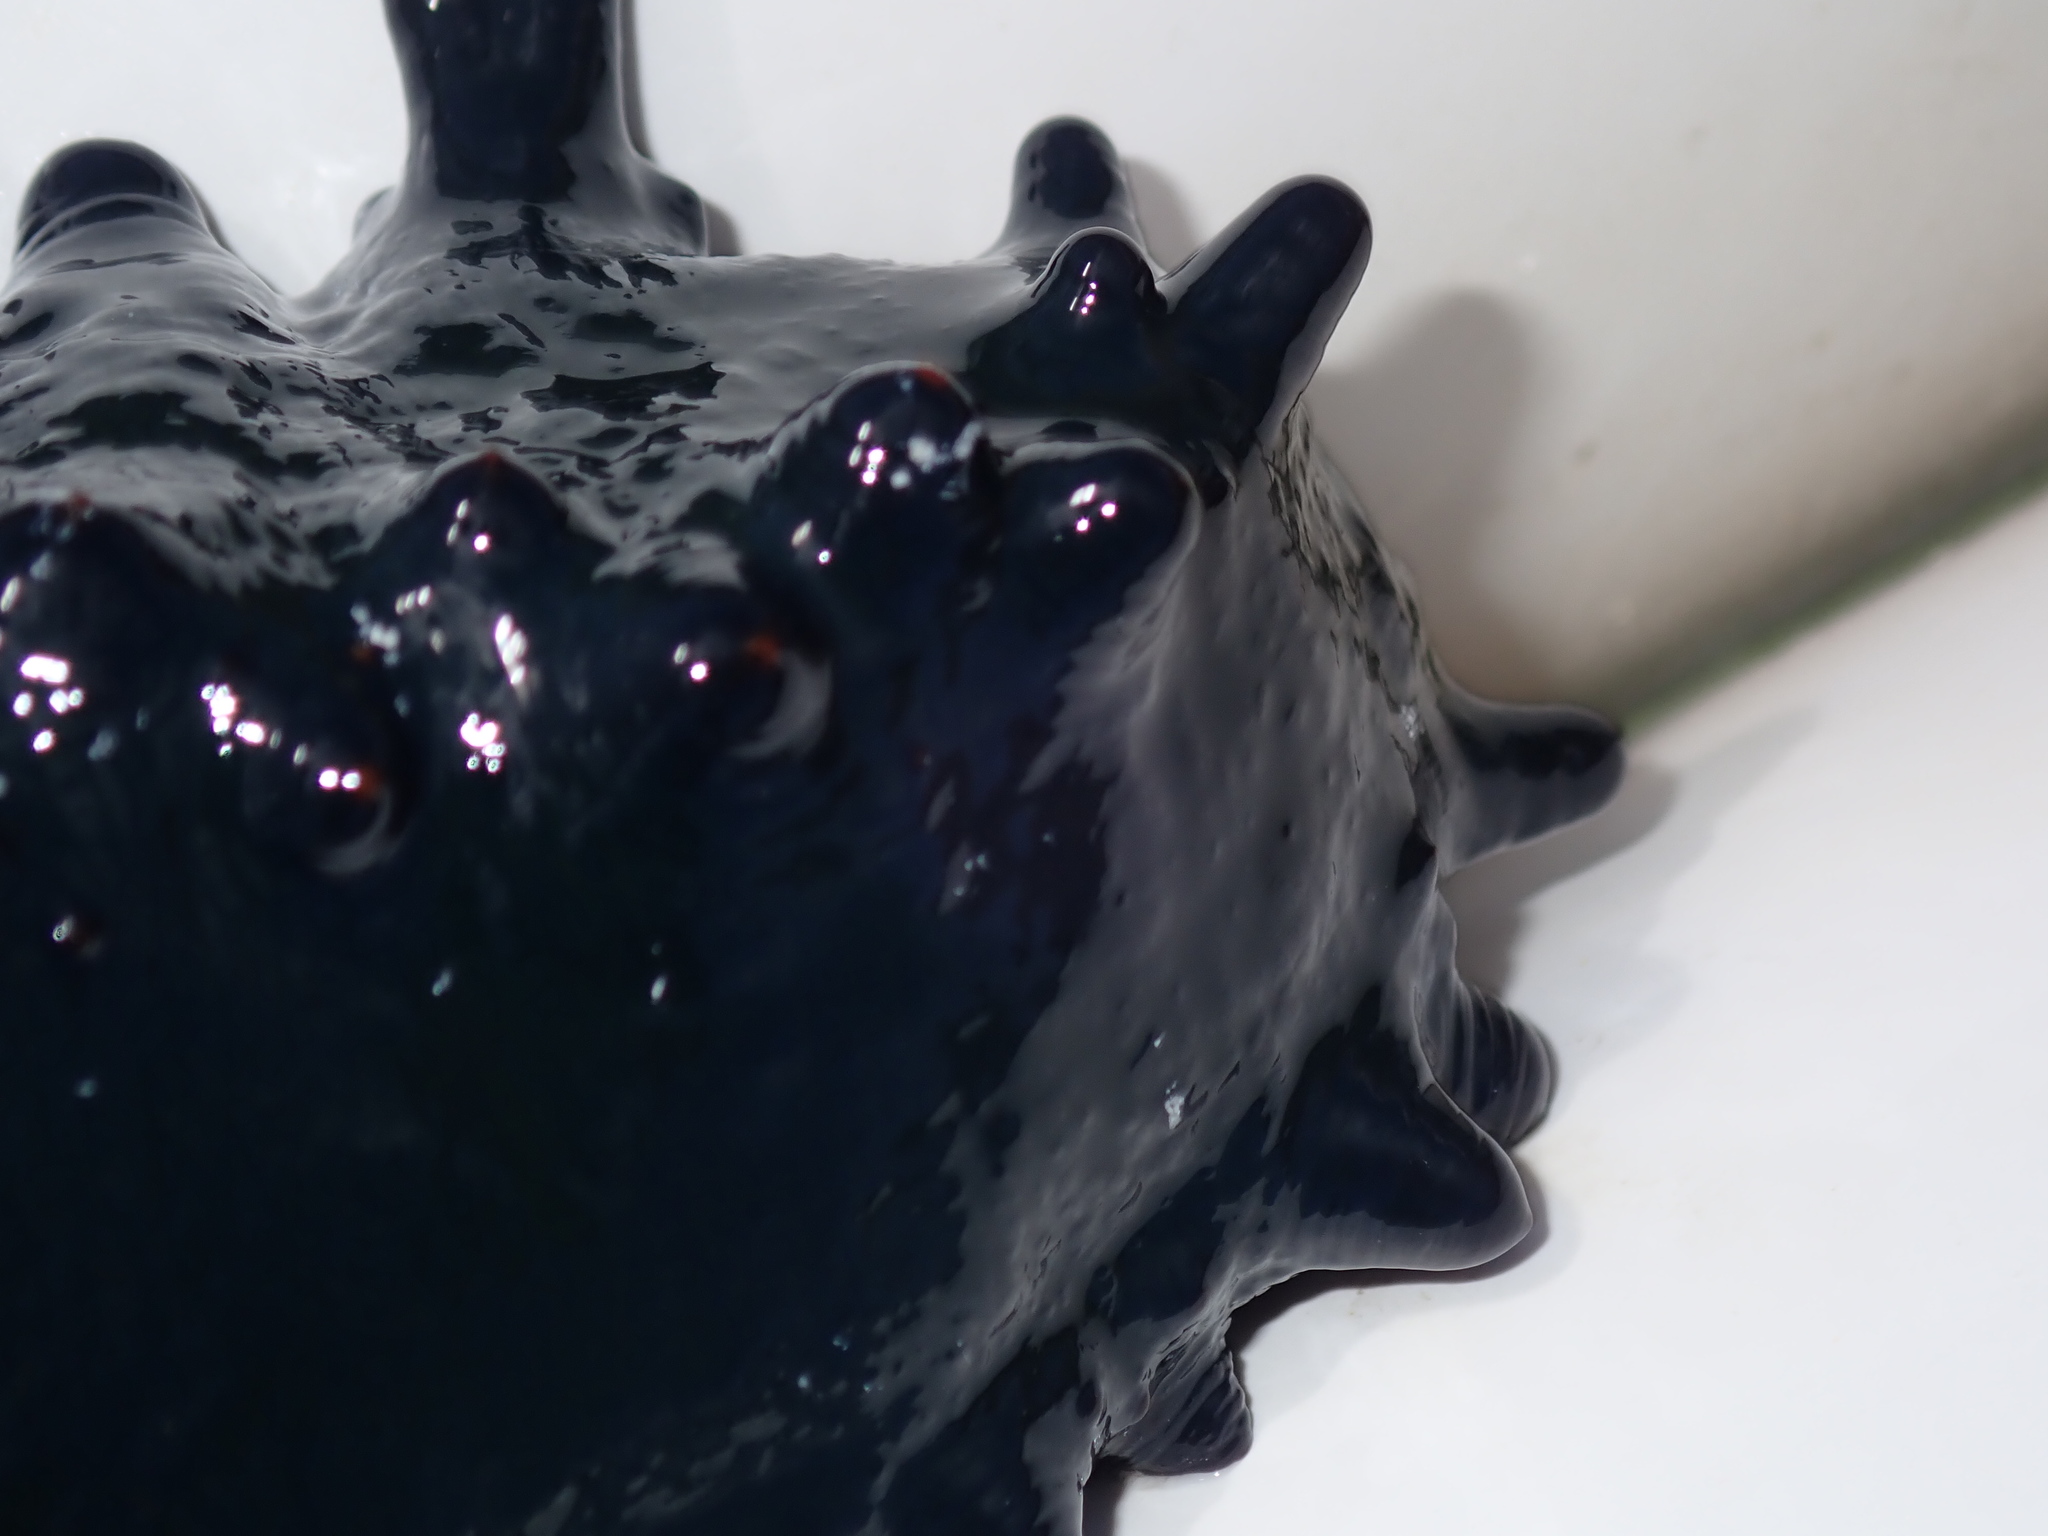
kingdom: Animalia
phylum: Echinodermata
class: Holothuroidea
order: Synallactida
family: Stichopodidae
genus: Stichopus
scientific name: Stichopus chloronotus
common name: Greenfish
